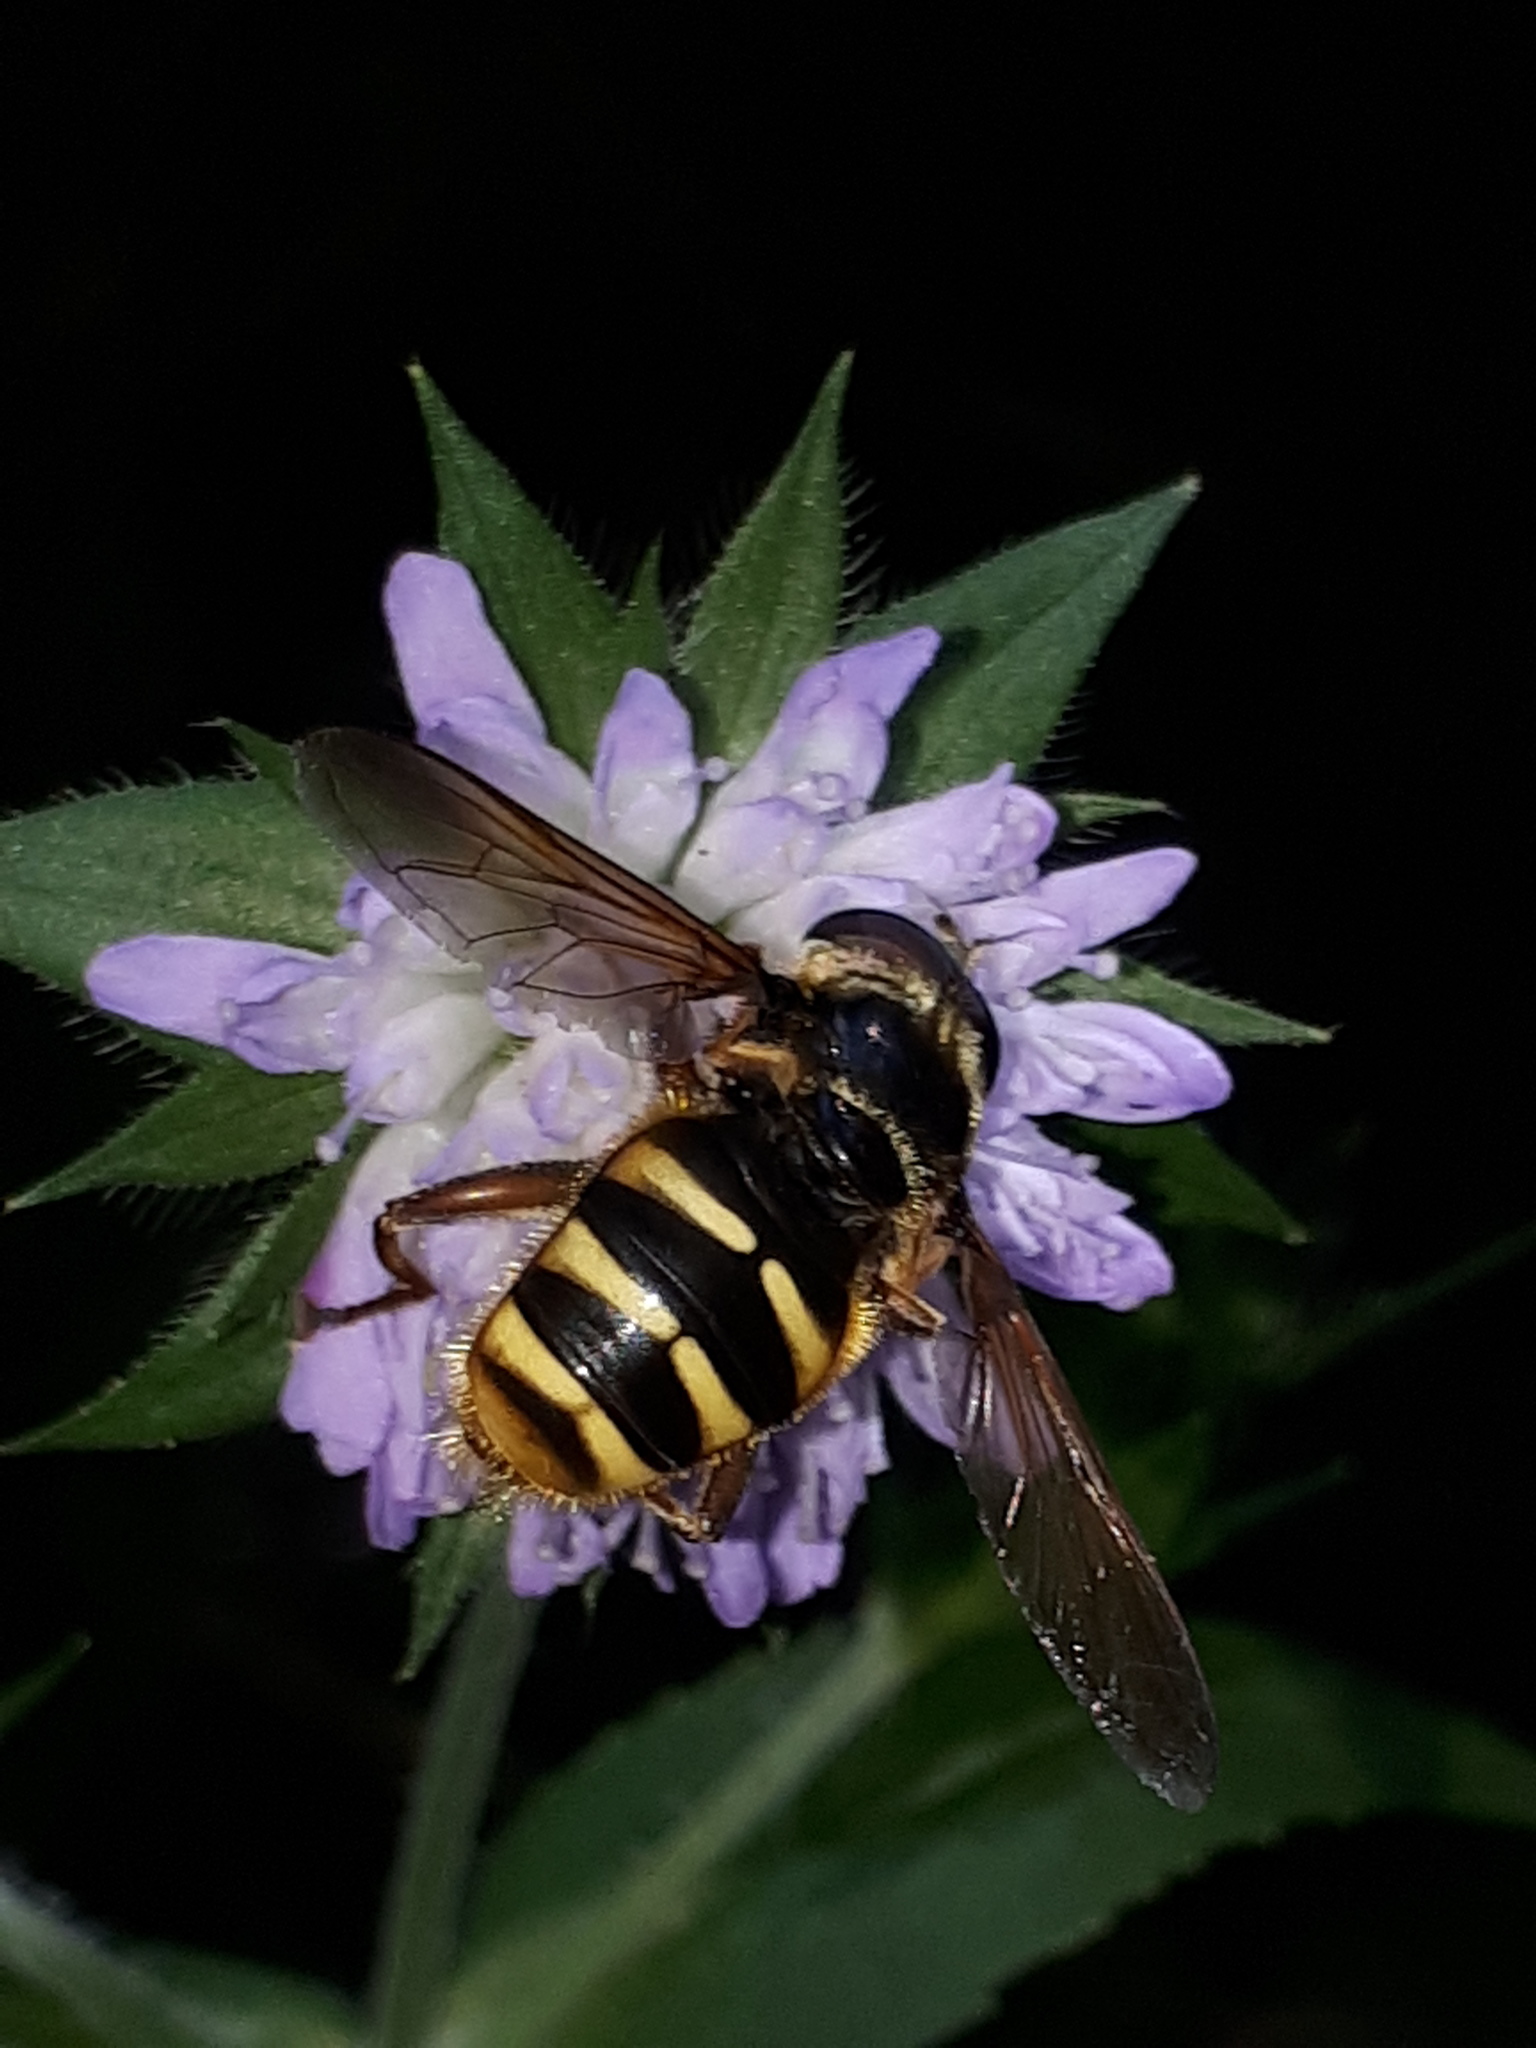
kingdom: Animalia
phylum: Arthropoda
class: Insecta
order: Diptera
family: Syrphidae
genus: Sericomyia
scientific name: Sericomyia silentis
